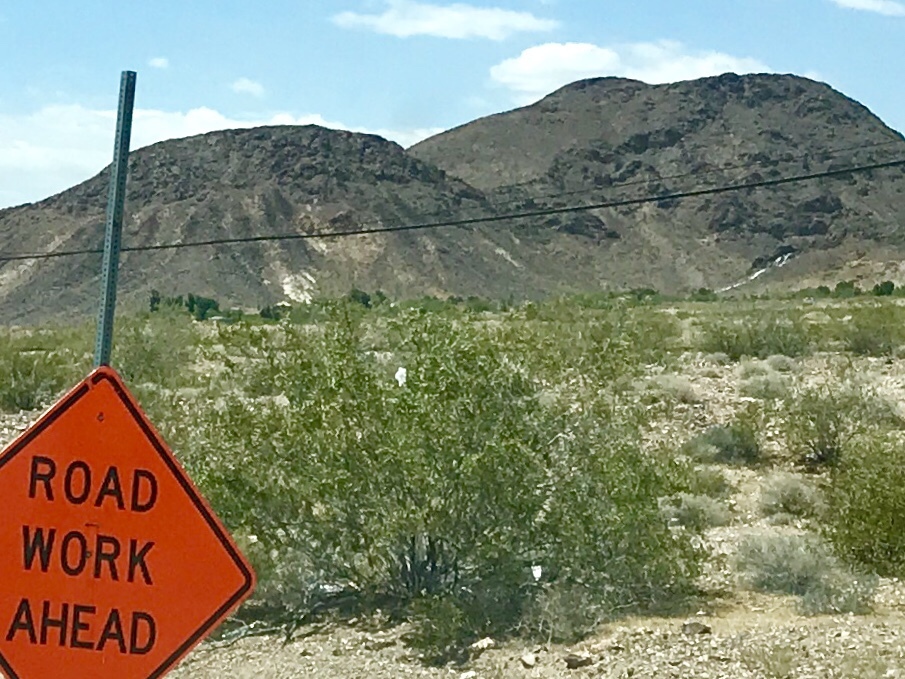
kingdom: Plantae
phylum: Tracheophyta
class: Magnoliopsida
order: Zygophyllales
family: Zygophyllaceae
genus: Larrea
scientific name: Larrea tridentata
